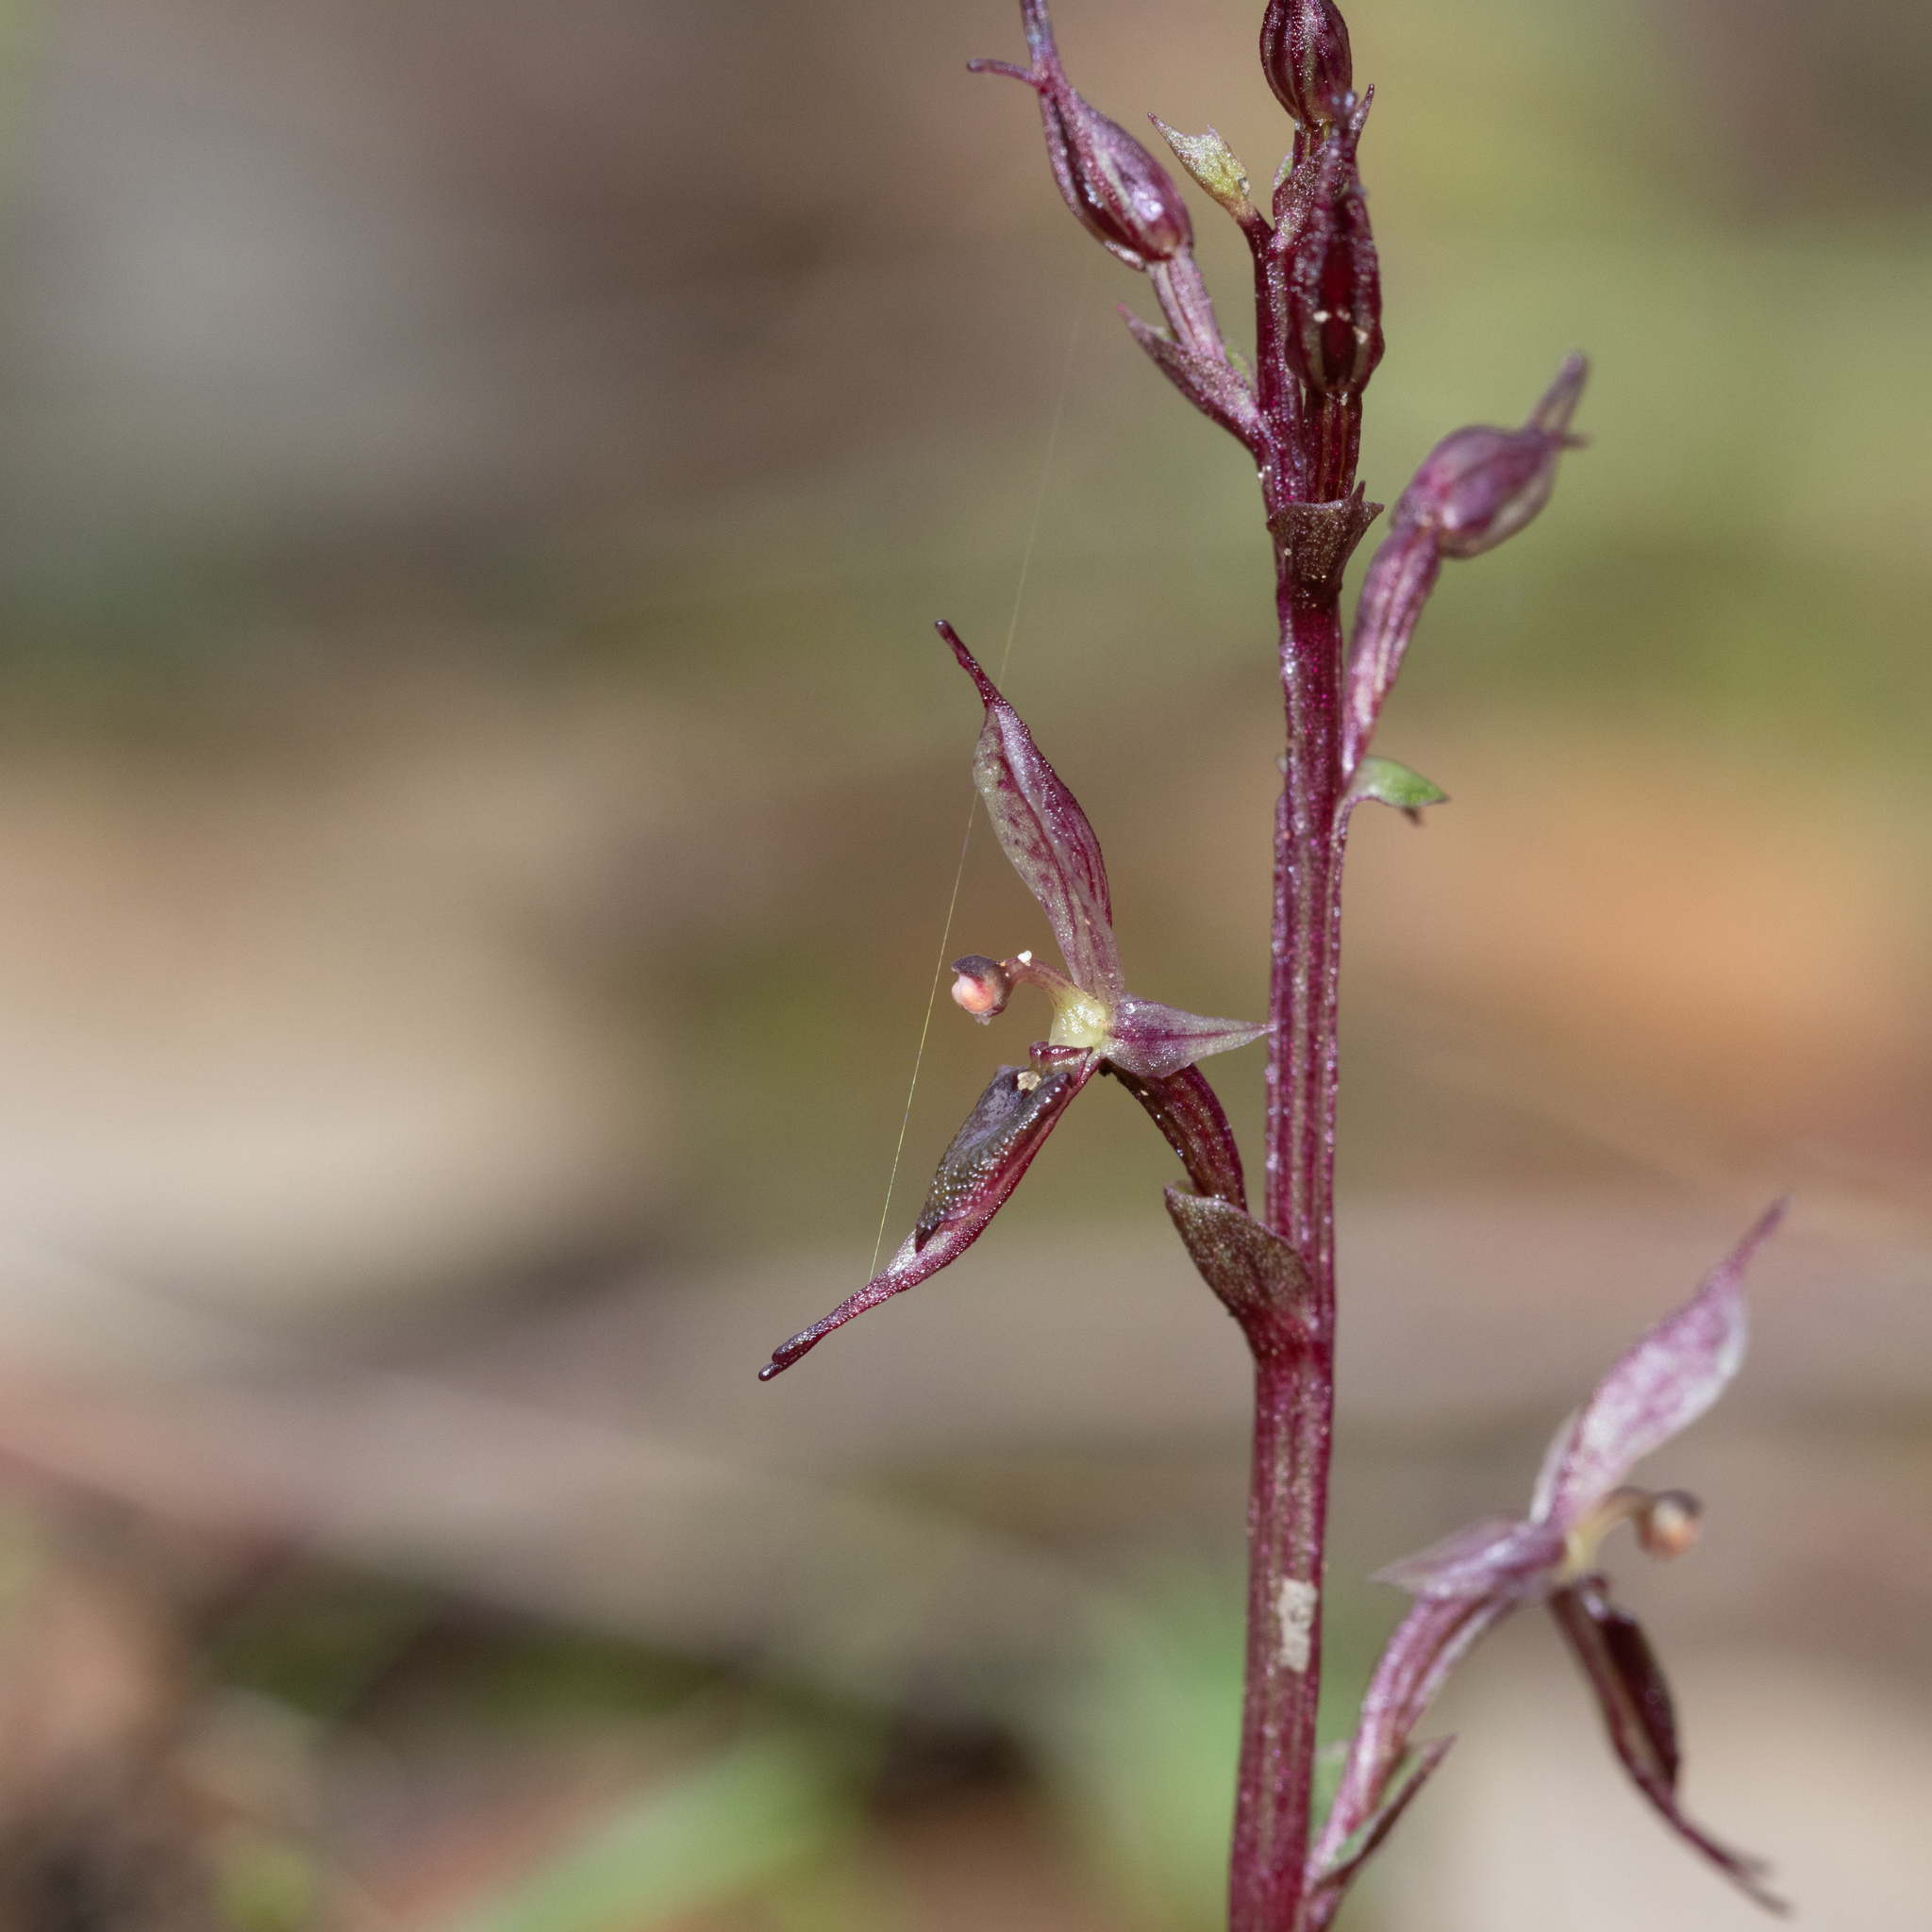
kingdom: Plantae
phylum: Tracheophyta
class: Liliopsida
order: Asparagales
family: Orchidaceae
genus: Acianthus
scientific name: Acianthus pusillus
